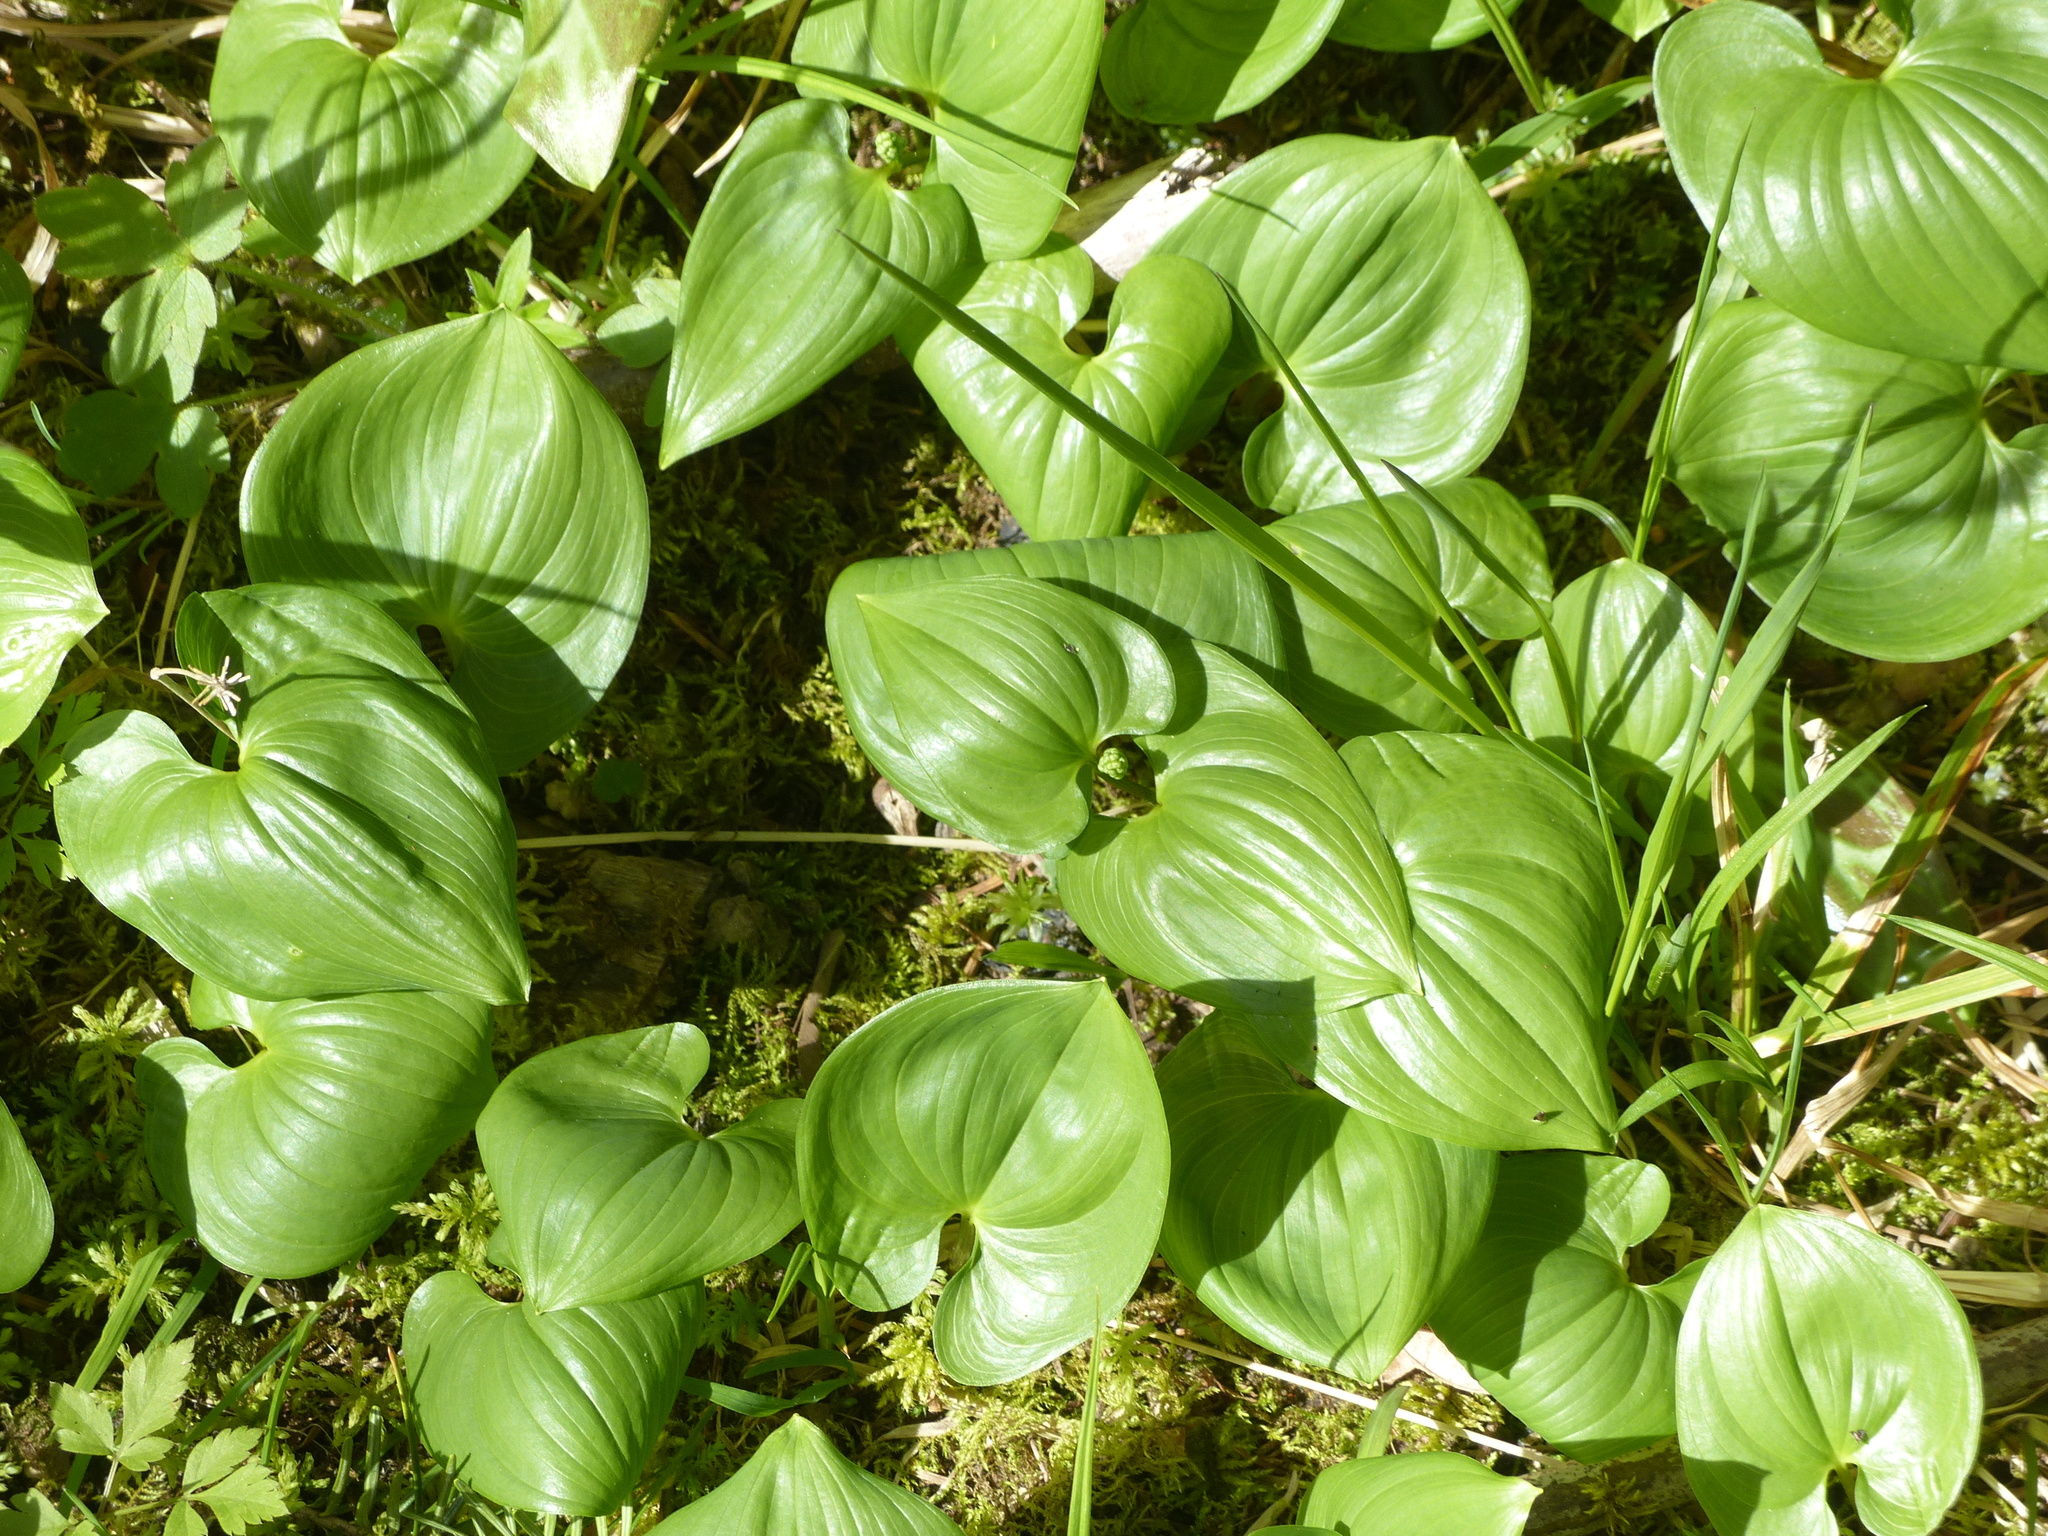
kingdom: Plantae
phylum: Tracheophyta
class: Liliopsida
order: Asparagales
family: Asparagaceae
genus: Maianthemum
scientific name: Maianthemum dilatatum
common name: False lily-of-the-valley
